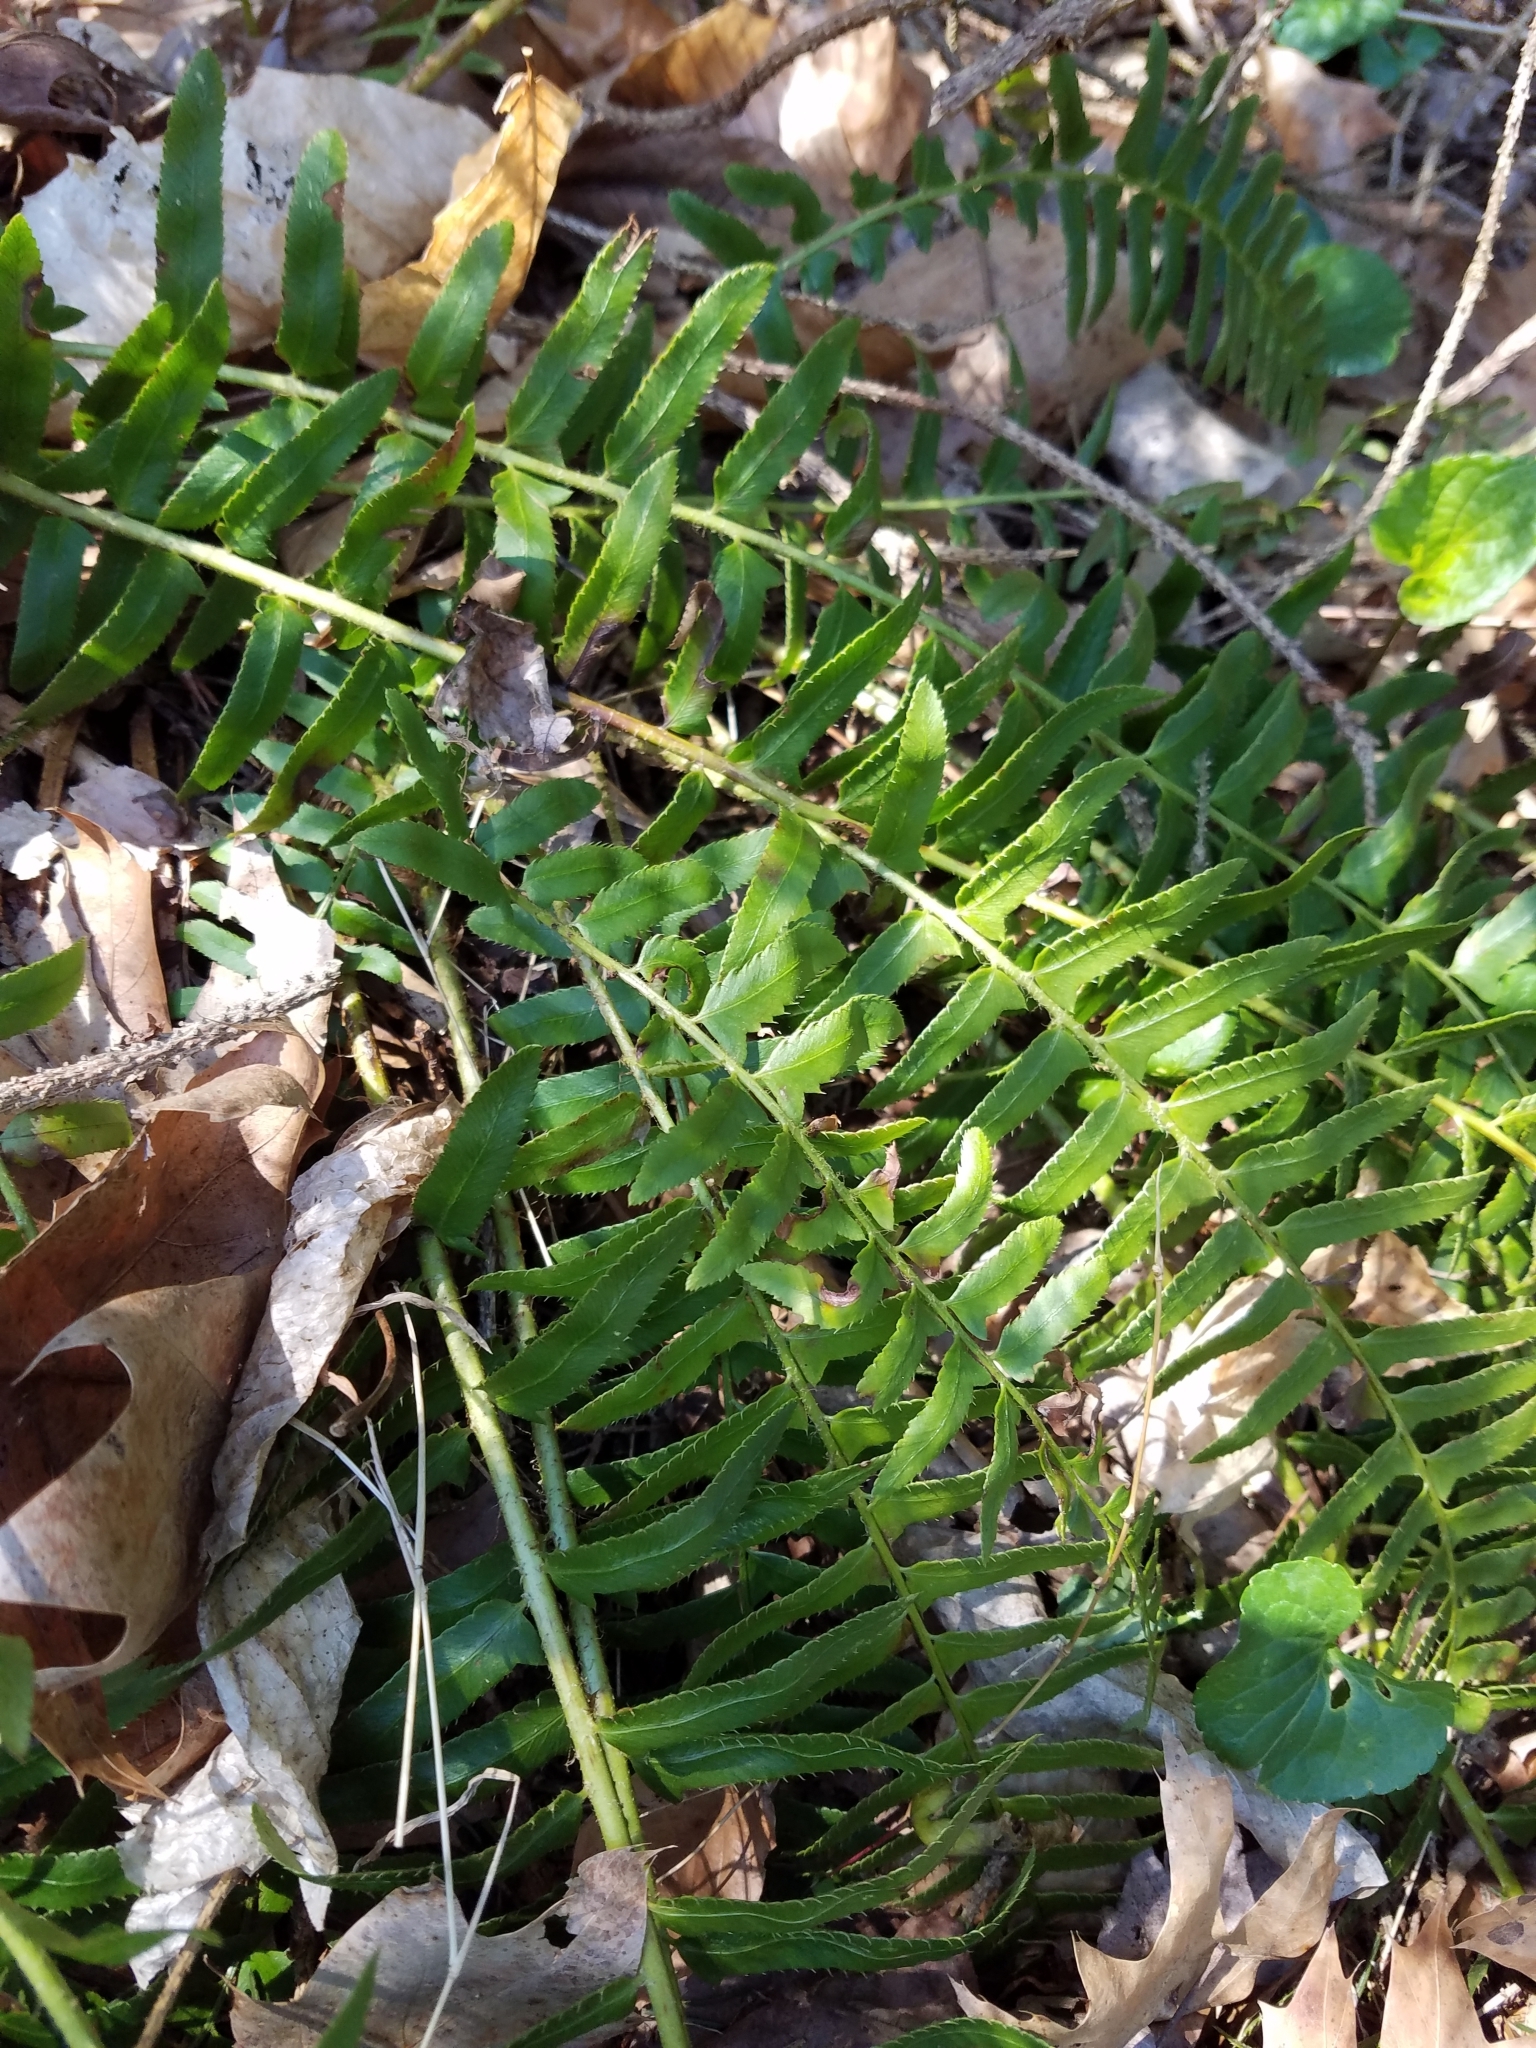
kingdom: Plantae
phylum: Tracheophyta
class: Polypodiopsida
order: Polypodiales
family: Dryopteridaceae
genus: Polystichum
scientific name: Polystichum acrostichoides
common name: Christmas fern
